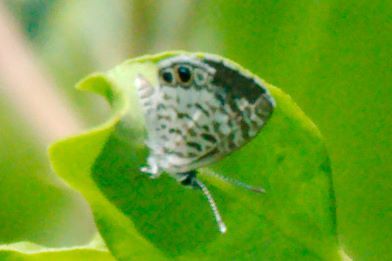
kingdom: Animalia
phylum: Arthropoda
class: Insecta
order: Lepidoptera
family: Lycaenidae
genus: Leptotes
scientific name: Leptotes cassius
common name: Cassius blue
